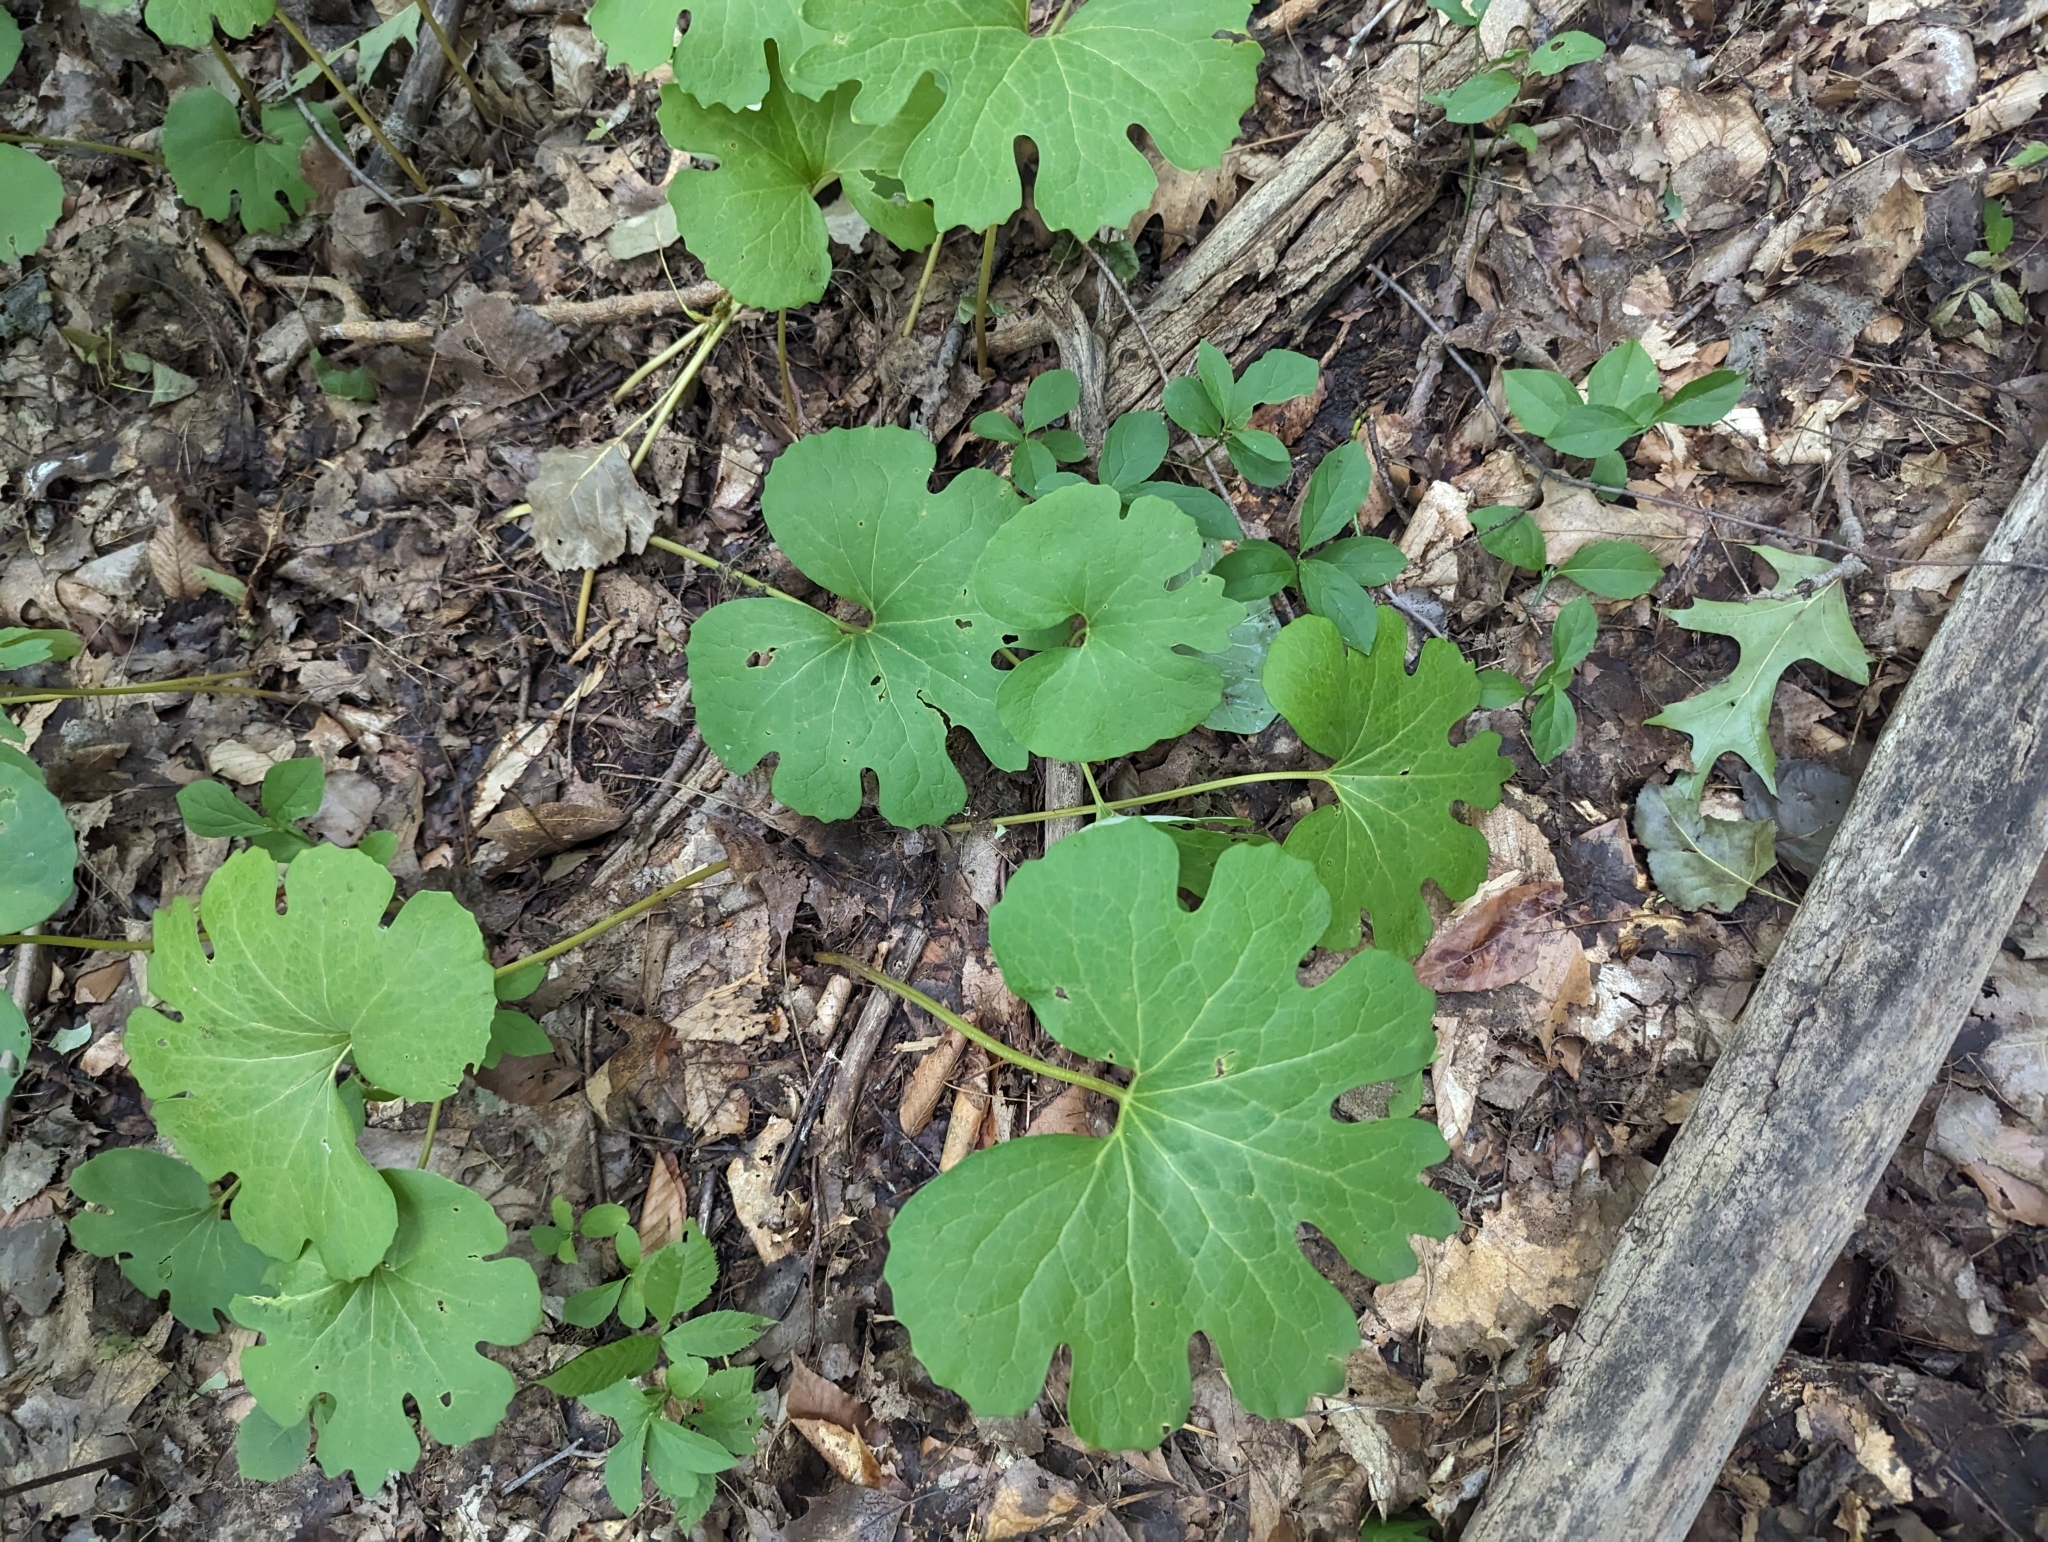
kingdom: Plantae
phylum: Tracheophyta
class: Magnoliopsida
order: Ranunculales
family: Papaveraceae
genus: Sanguinaria
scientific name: Sanguinaria canadensis
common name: Bloodroot
